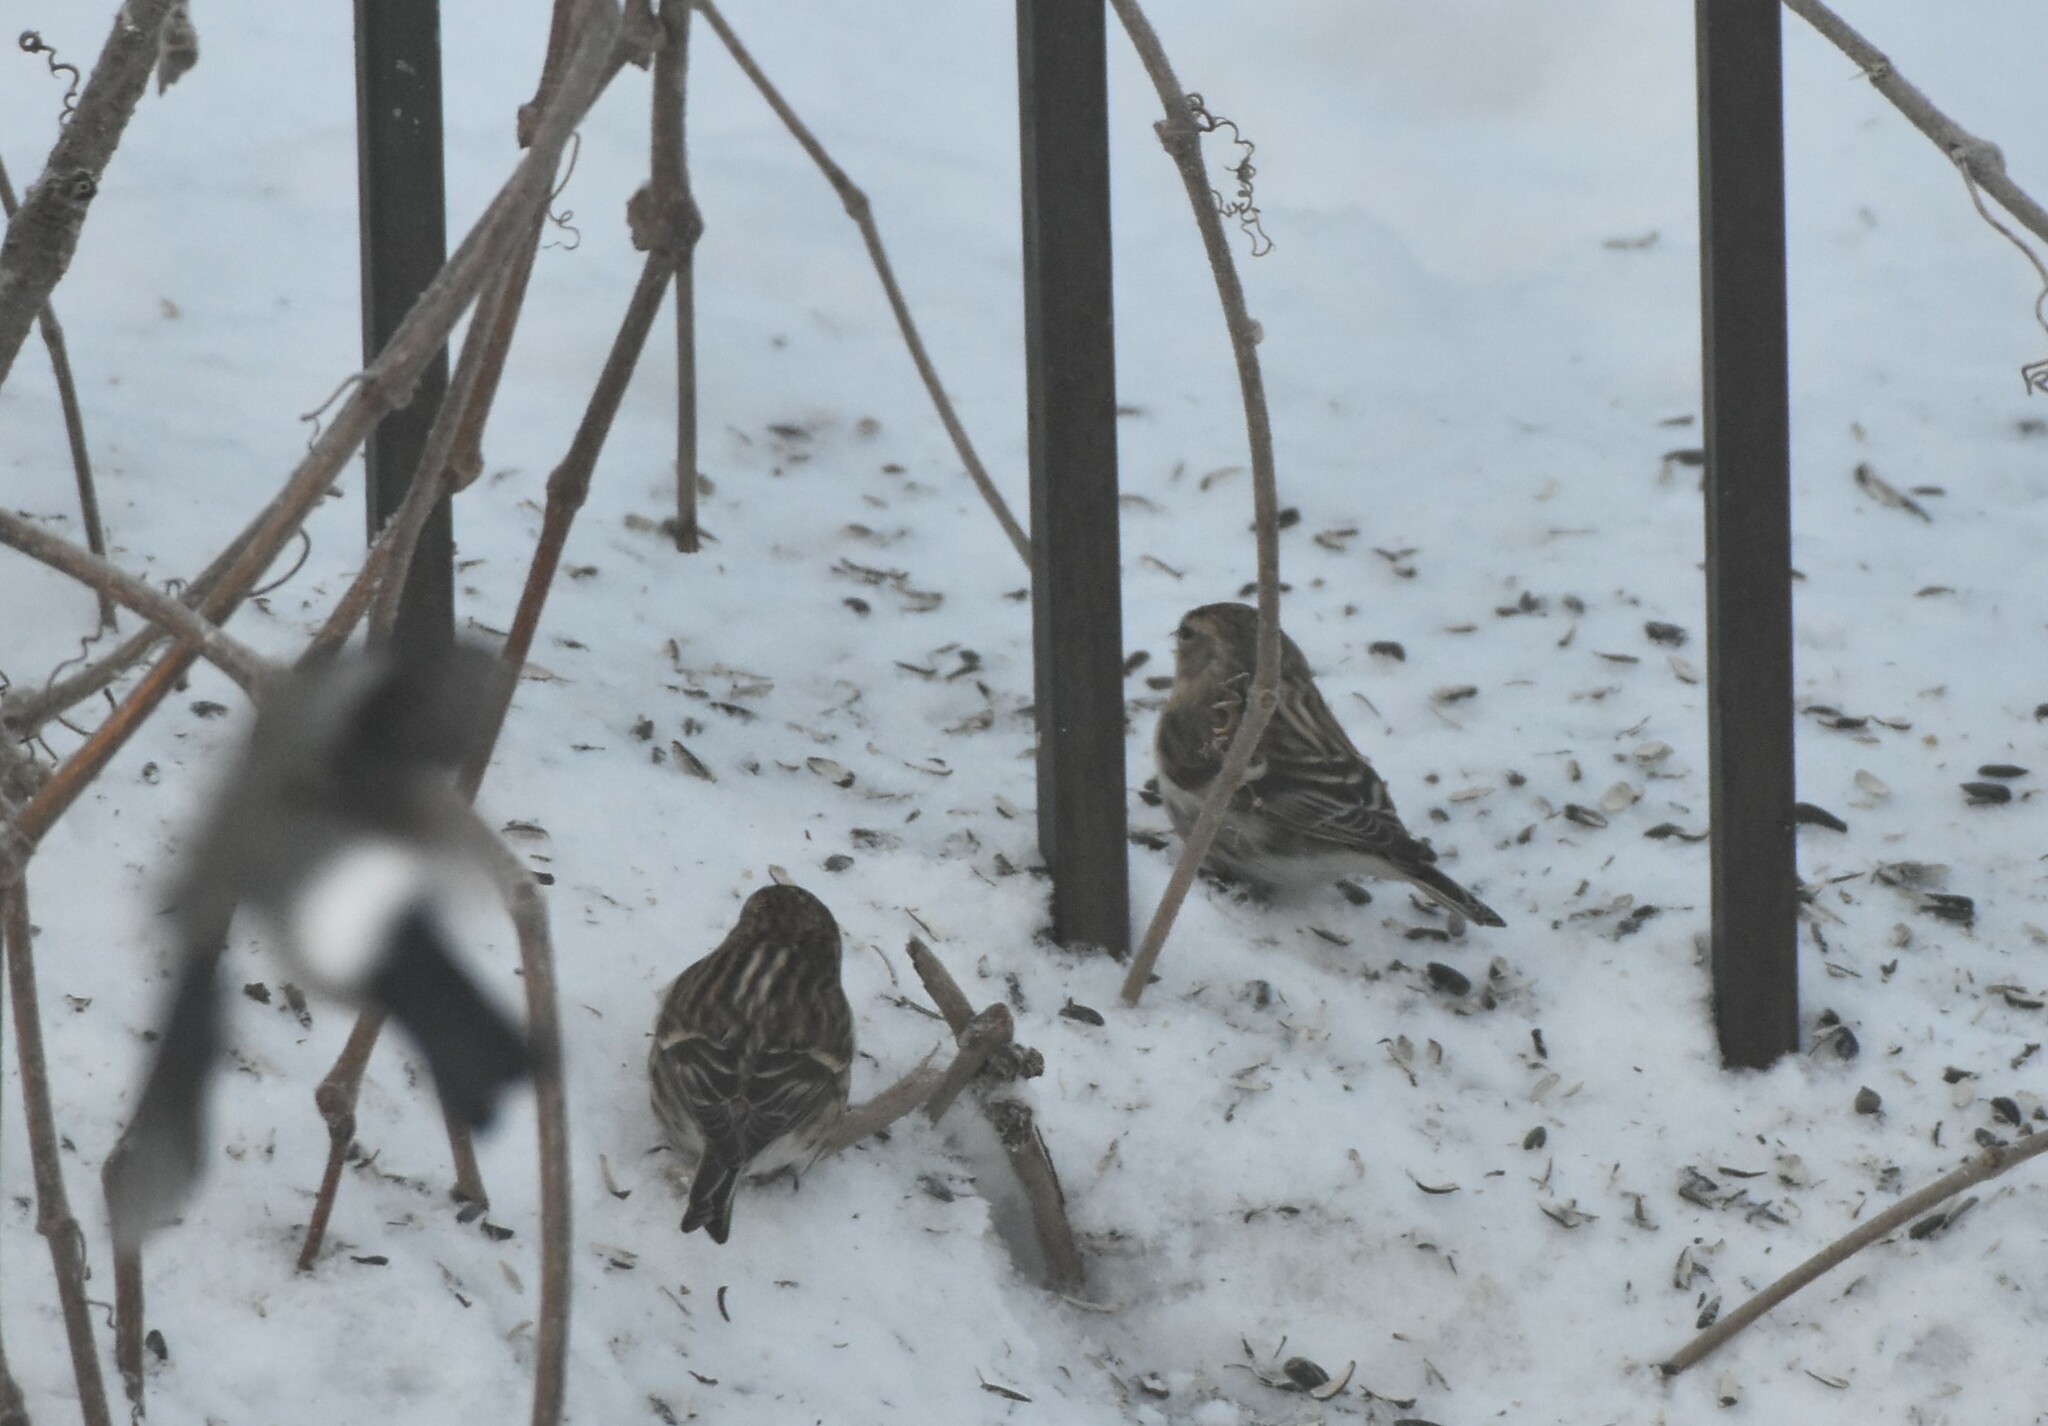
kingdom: Animalia
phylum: Chordata
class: Aves
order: Passeriformes
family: Fringillidae
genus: Acanthis
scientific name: Acanthis flammea
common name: Common redpoll
